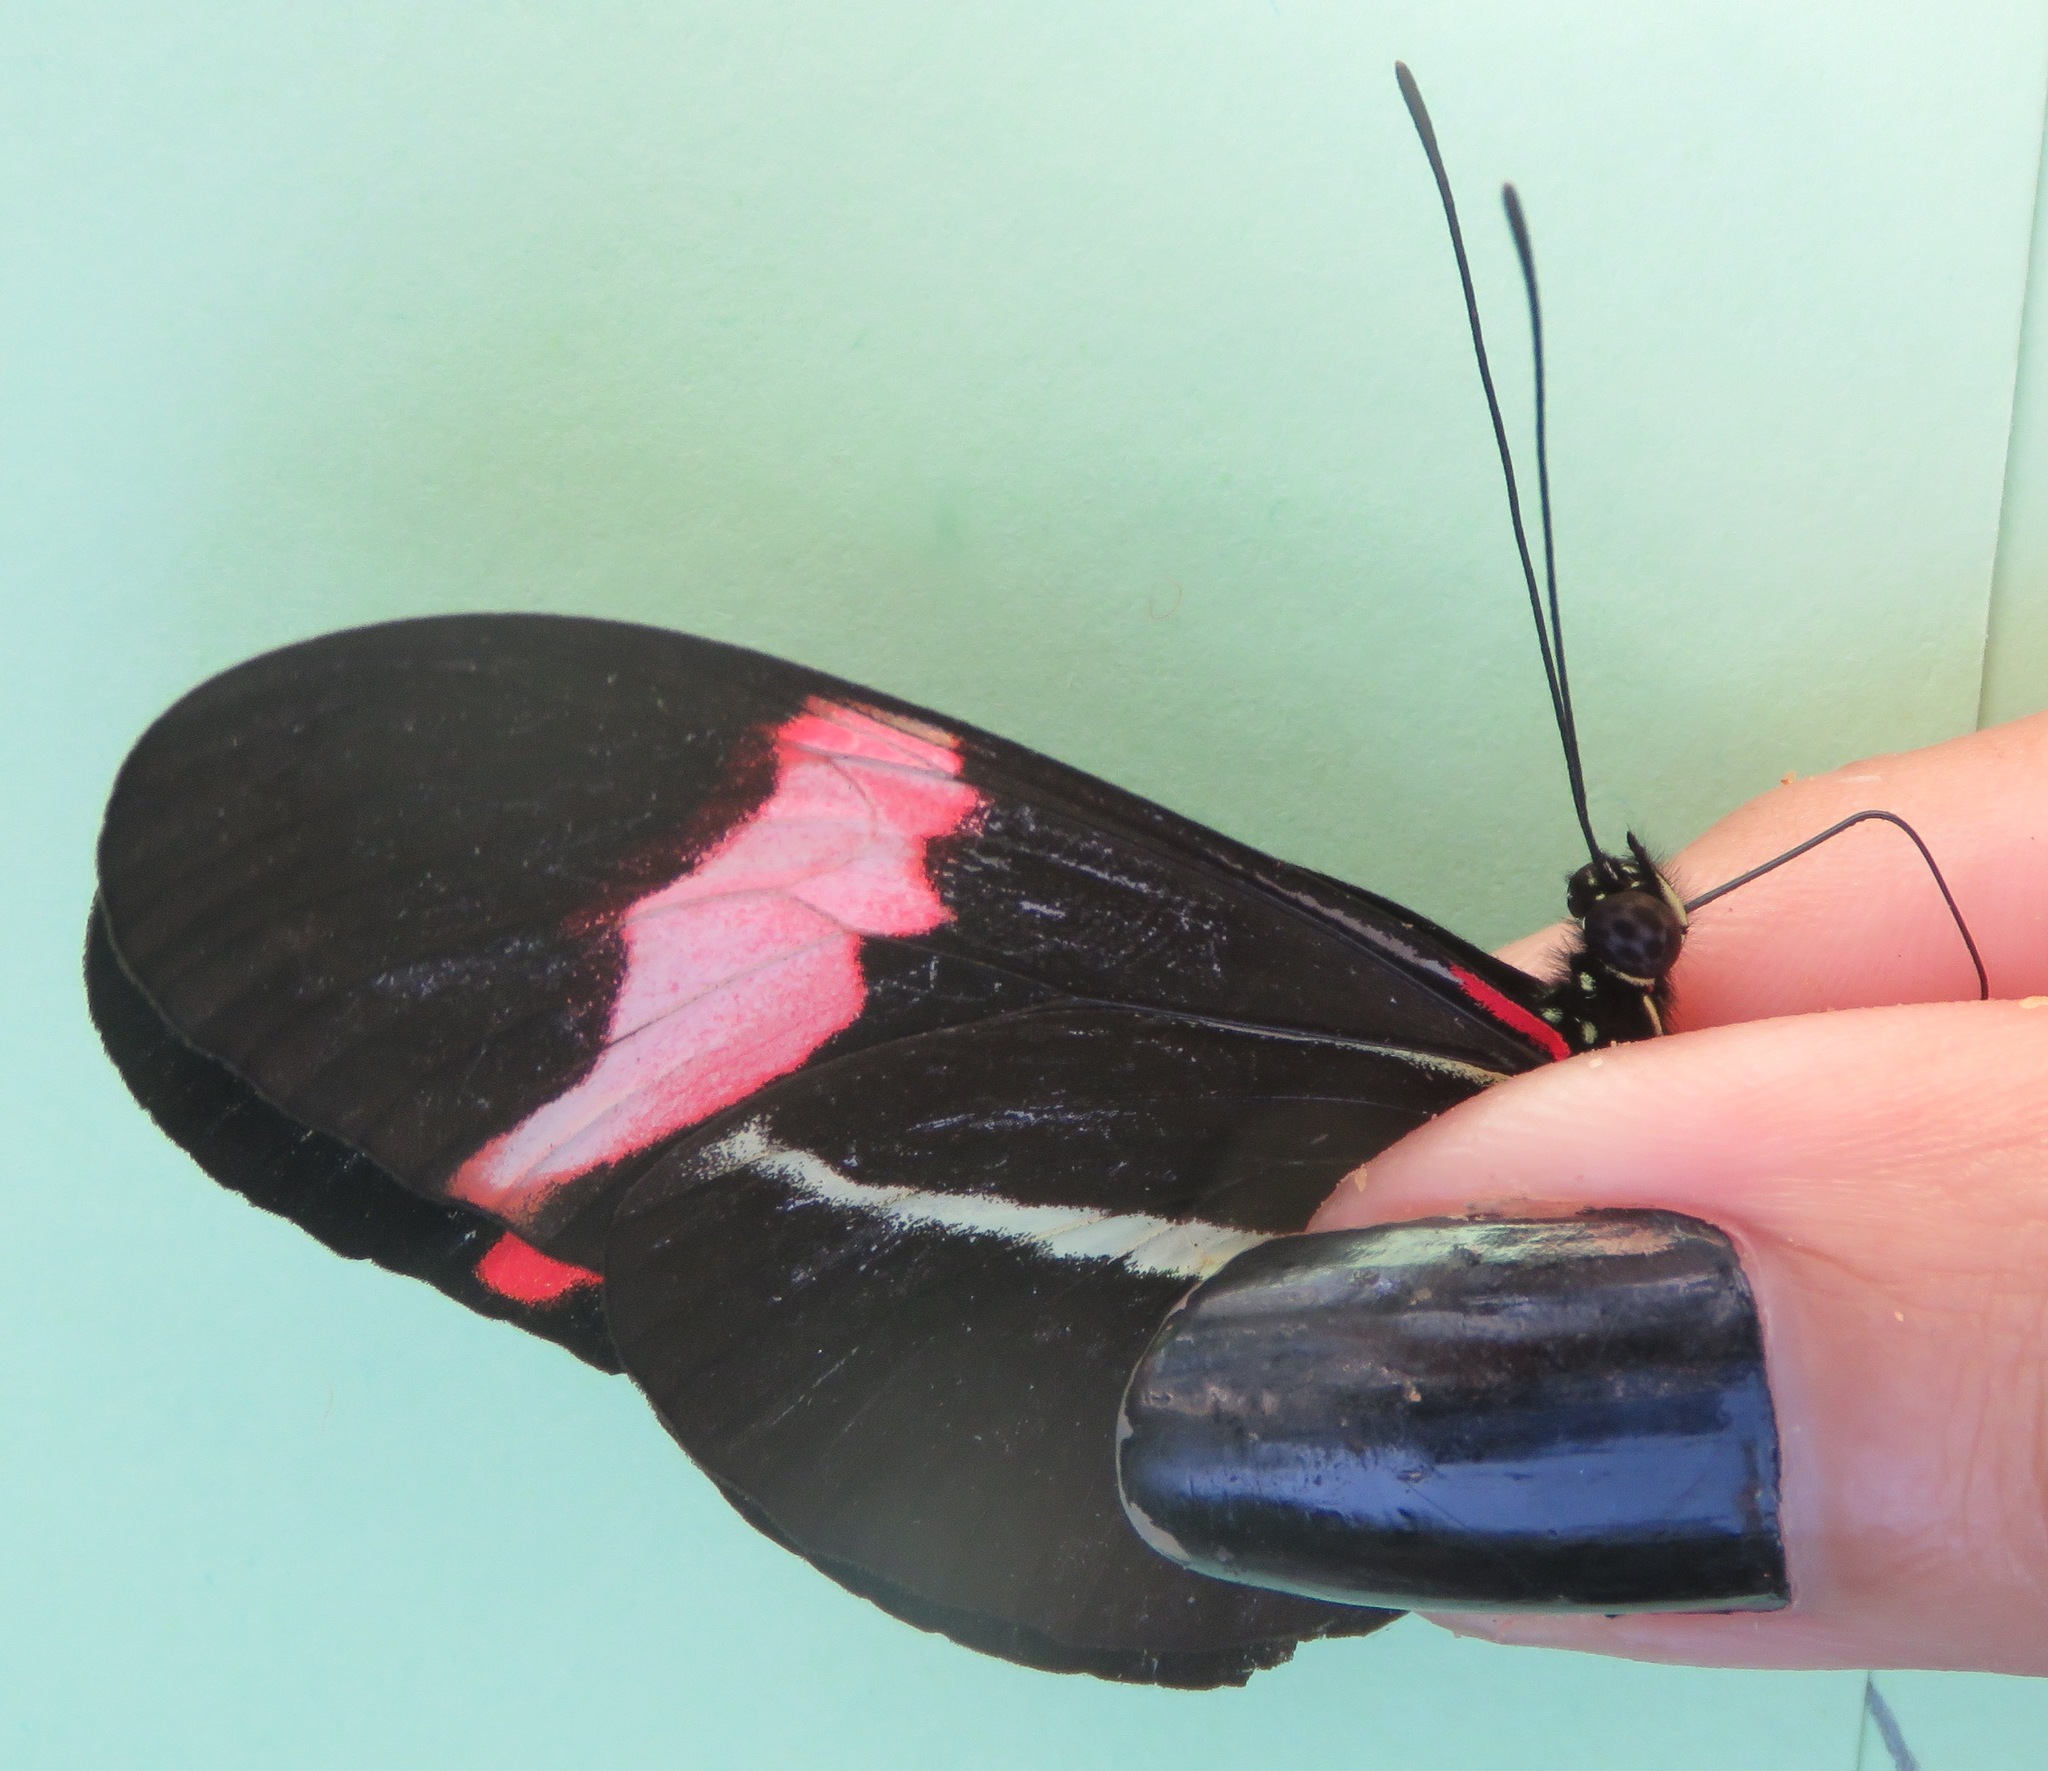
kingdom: Animalia
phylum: Arthropoda
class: Insecta
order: Lepidoptera
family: Nymphalidae
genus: Tirumala
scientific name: Tirumala petiverana
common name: Blue monarch
